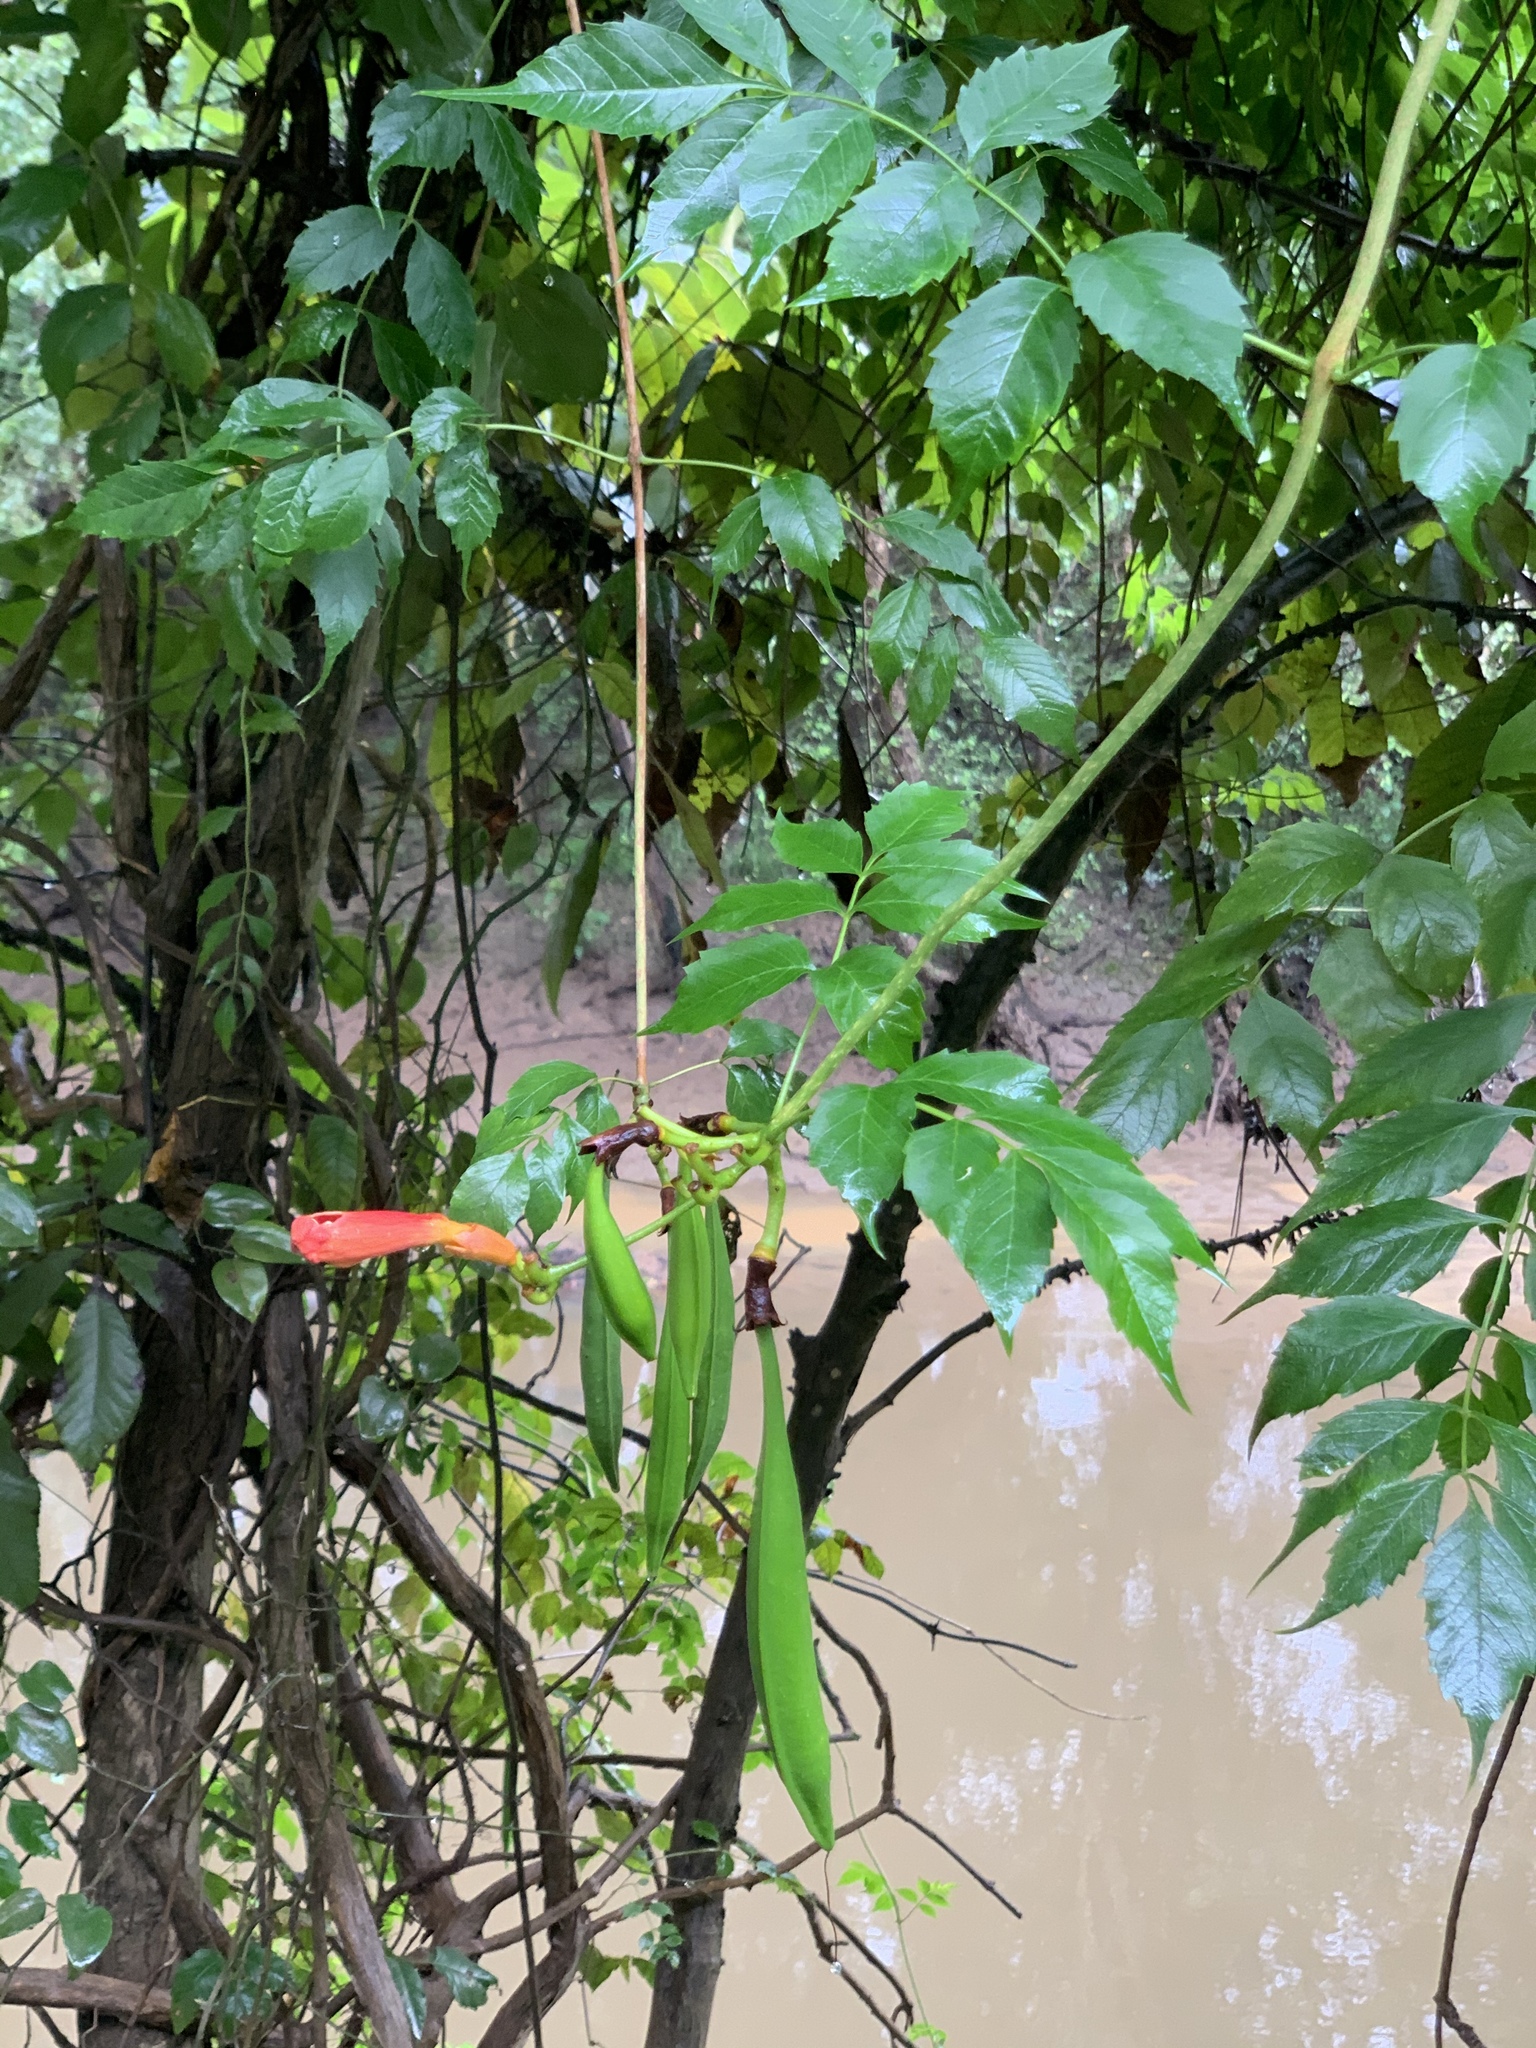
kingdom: Plantae
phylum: Tracheophyta
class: Magnoliopsida
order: Lamiales
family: Bignoniaceae
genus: Campsis
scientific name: Campsis radicans
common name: Trumpet-creeper
